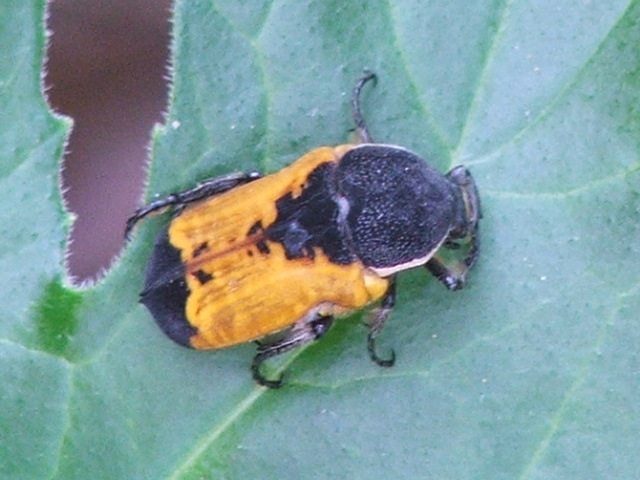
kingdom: Animalia
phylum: Arthropoda
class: Insecta
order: Coleoptera
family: Scarabaeidae
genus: Phonotaenia
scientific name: Phonotaenia balteata
